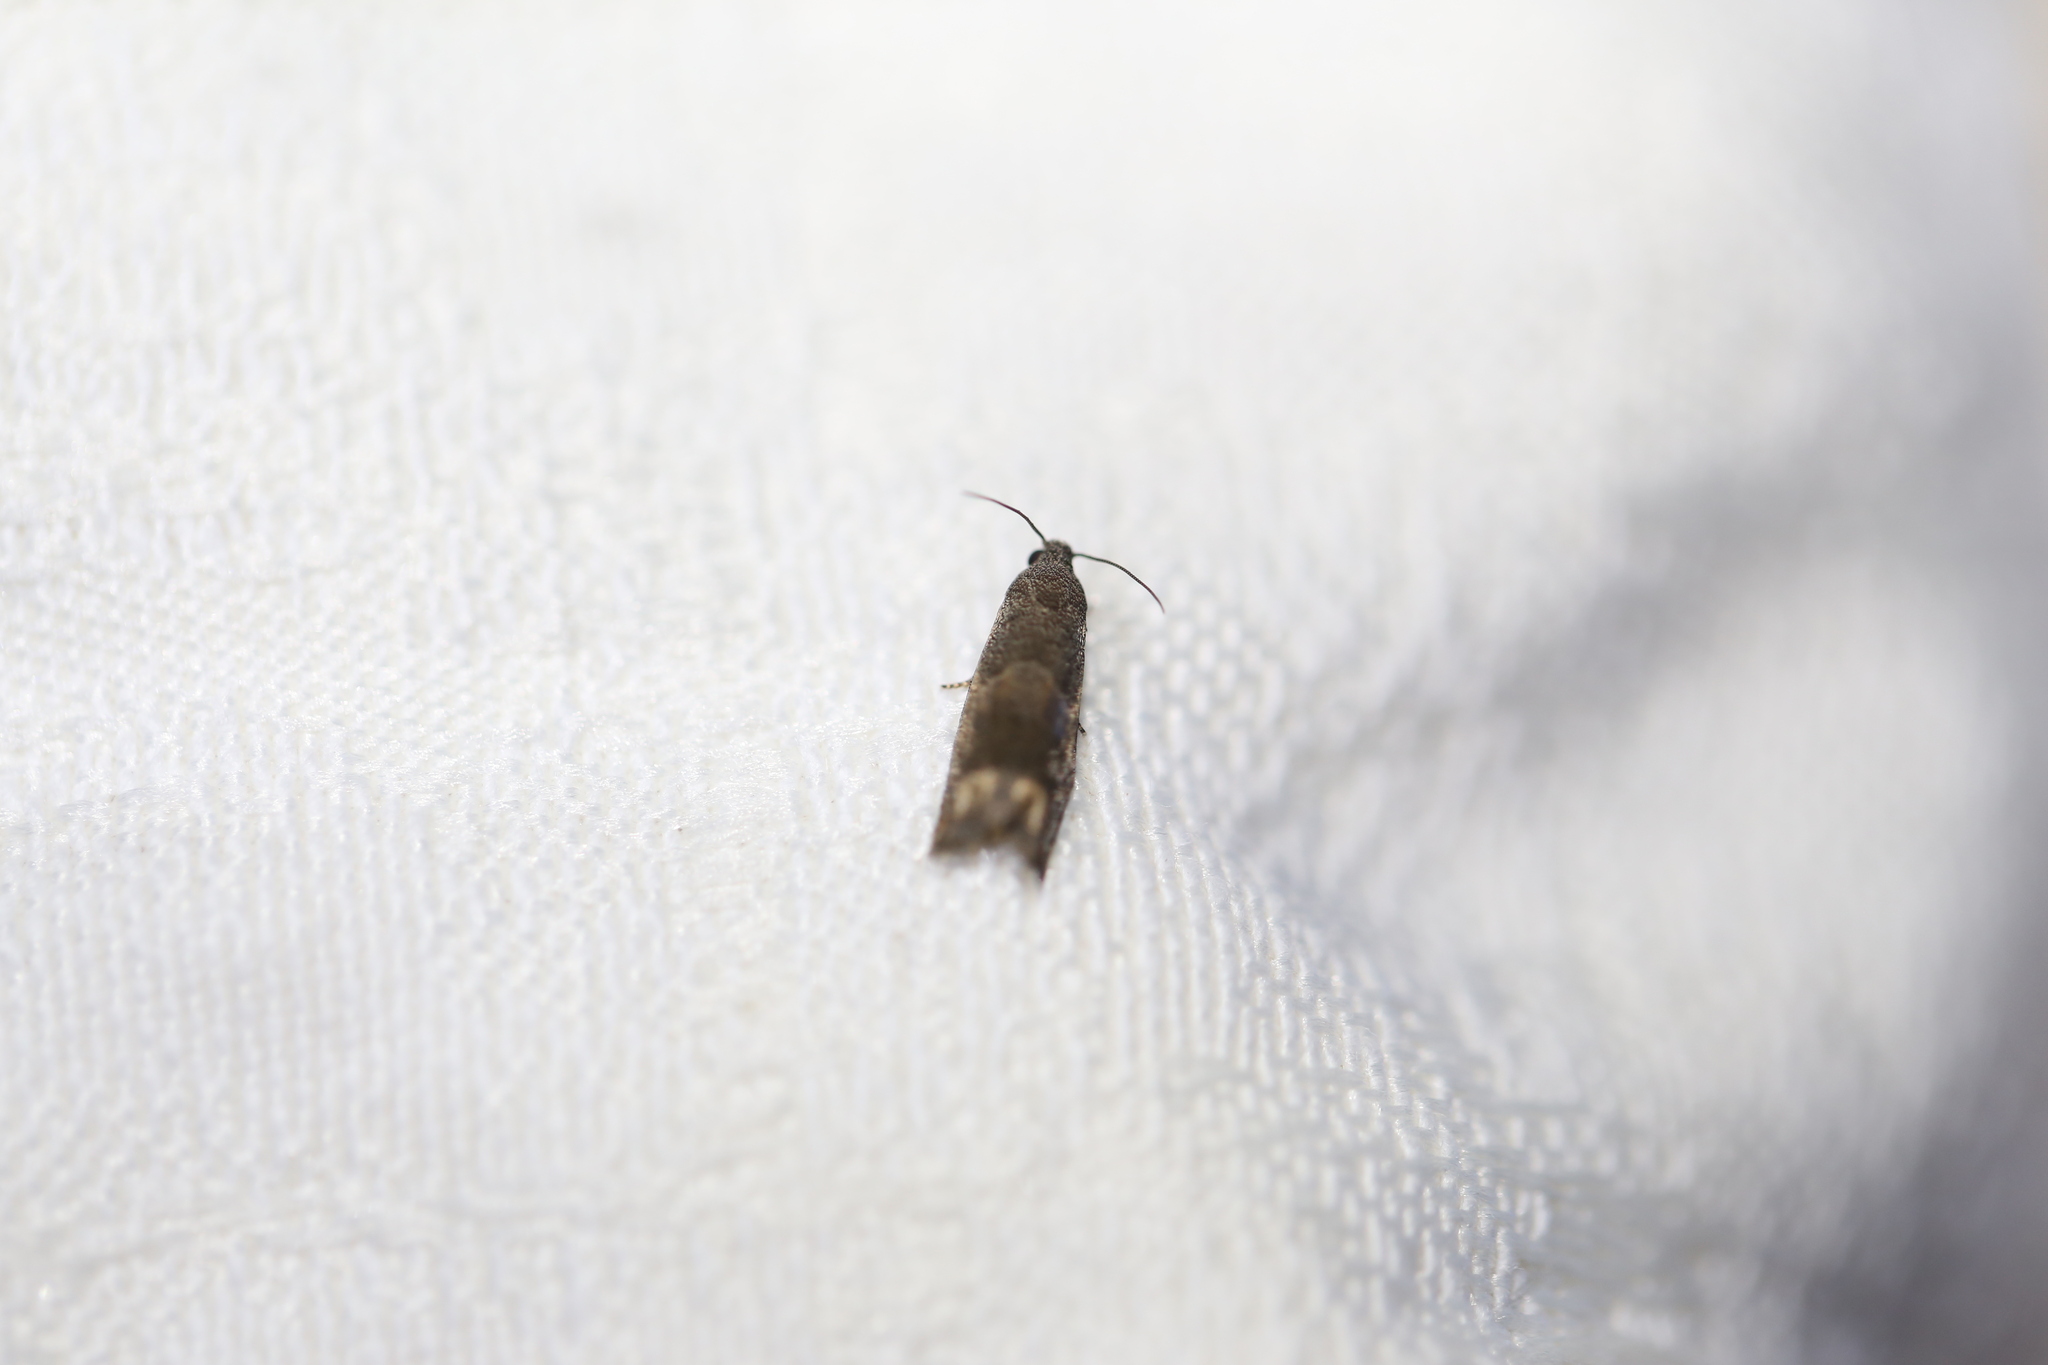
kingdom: Animalia
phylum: Arthropoda
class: Insecta
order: Lepidoptera
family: Tortricidae
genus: Epiblema
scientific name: Epiblema strenuana
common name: Ragweed borer moth
